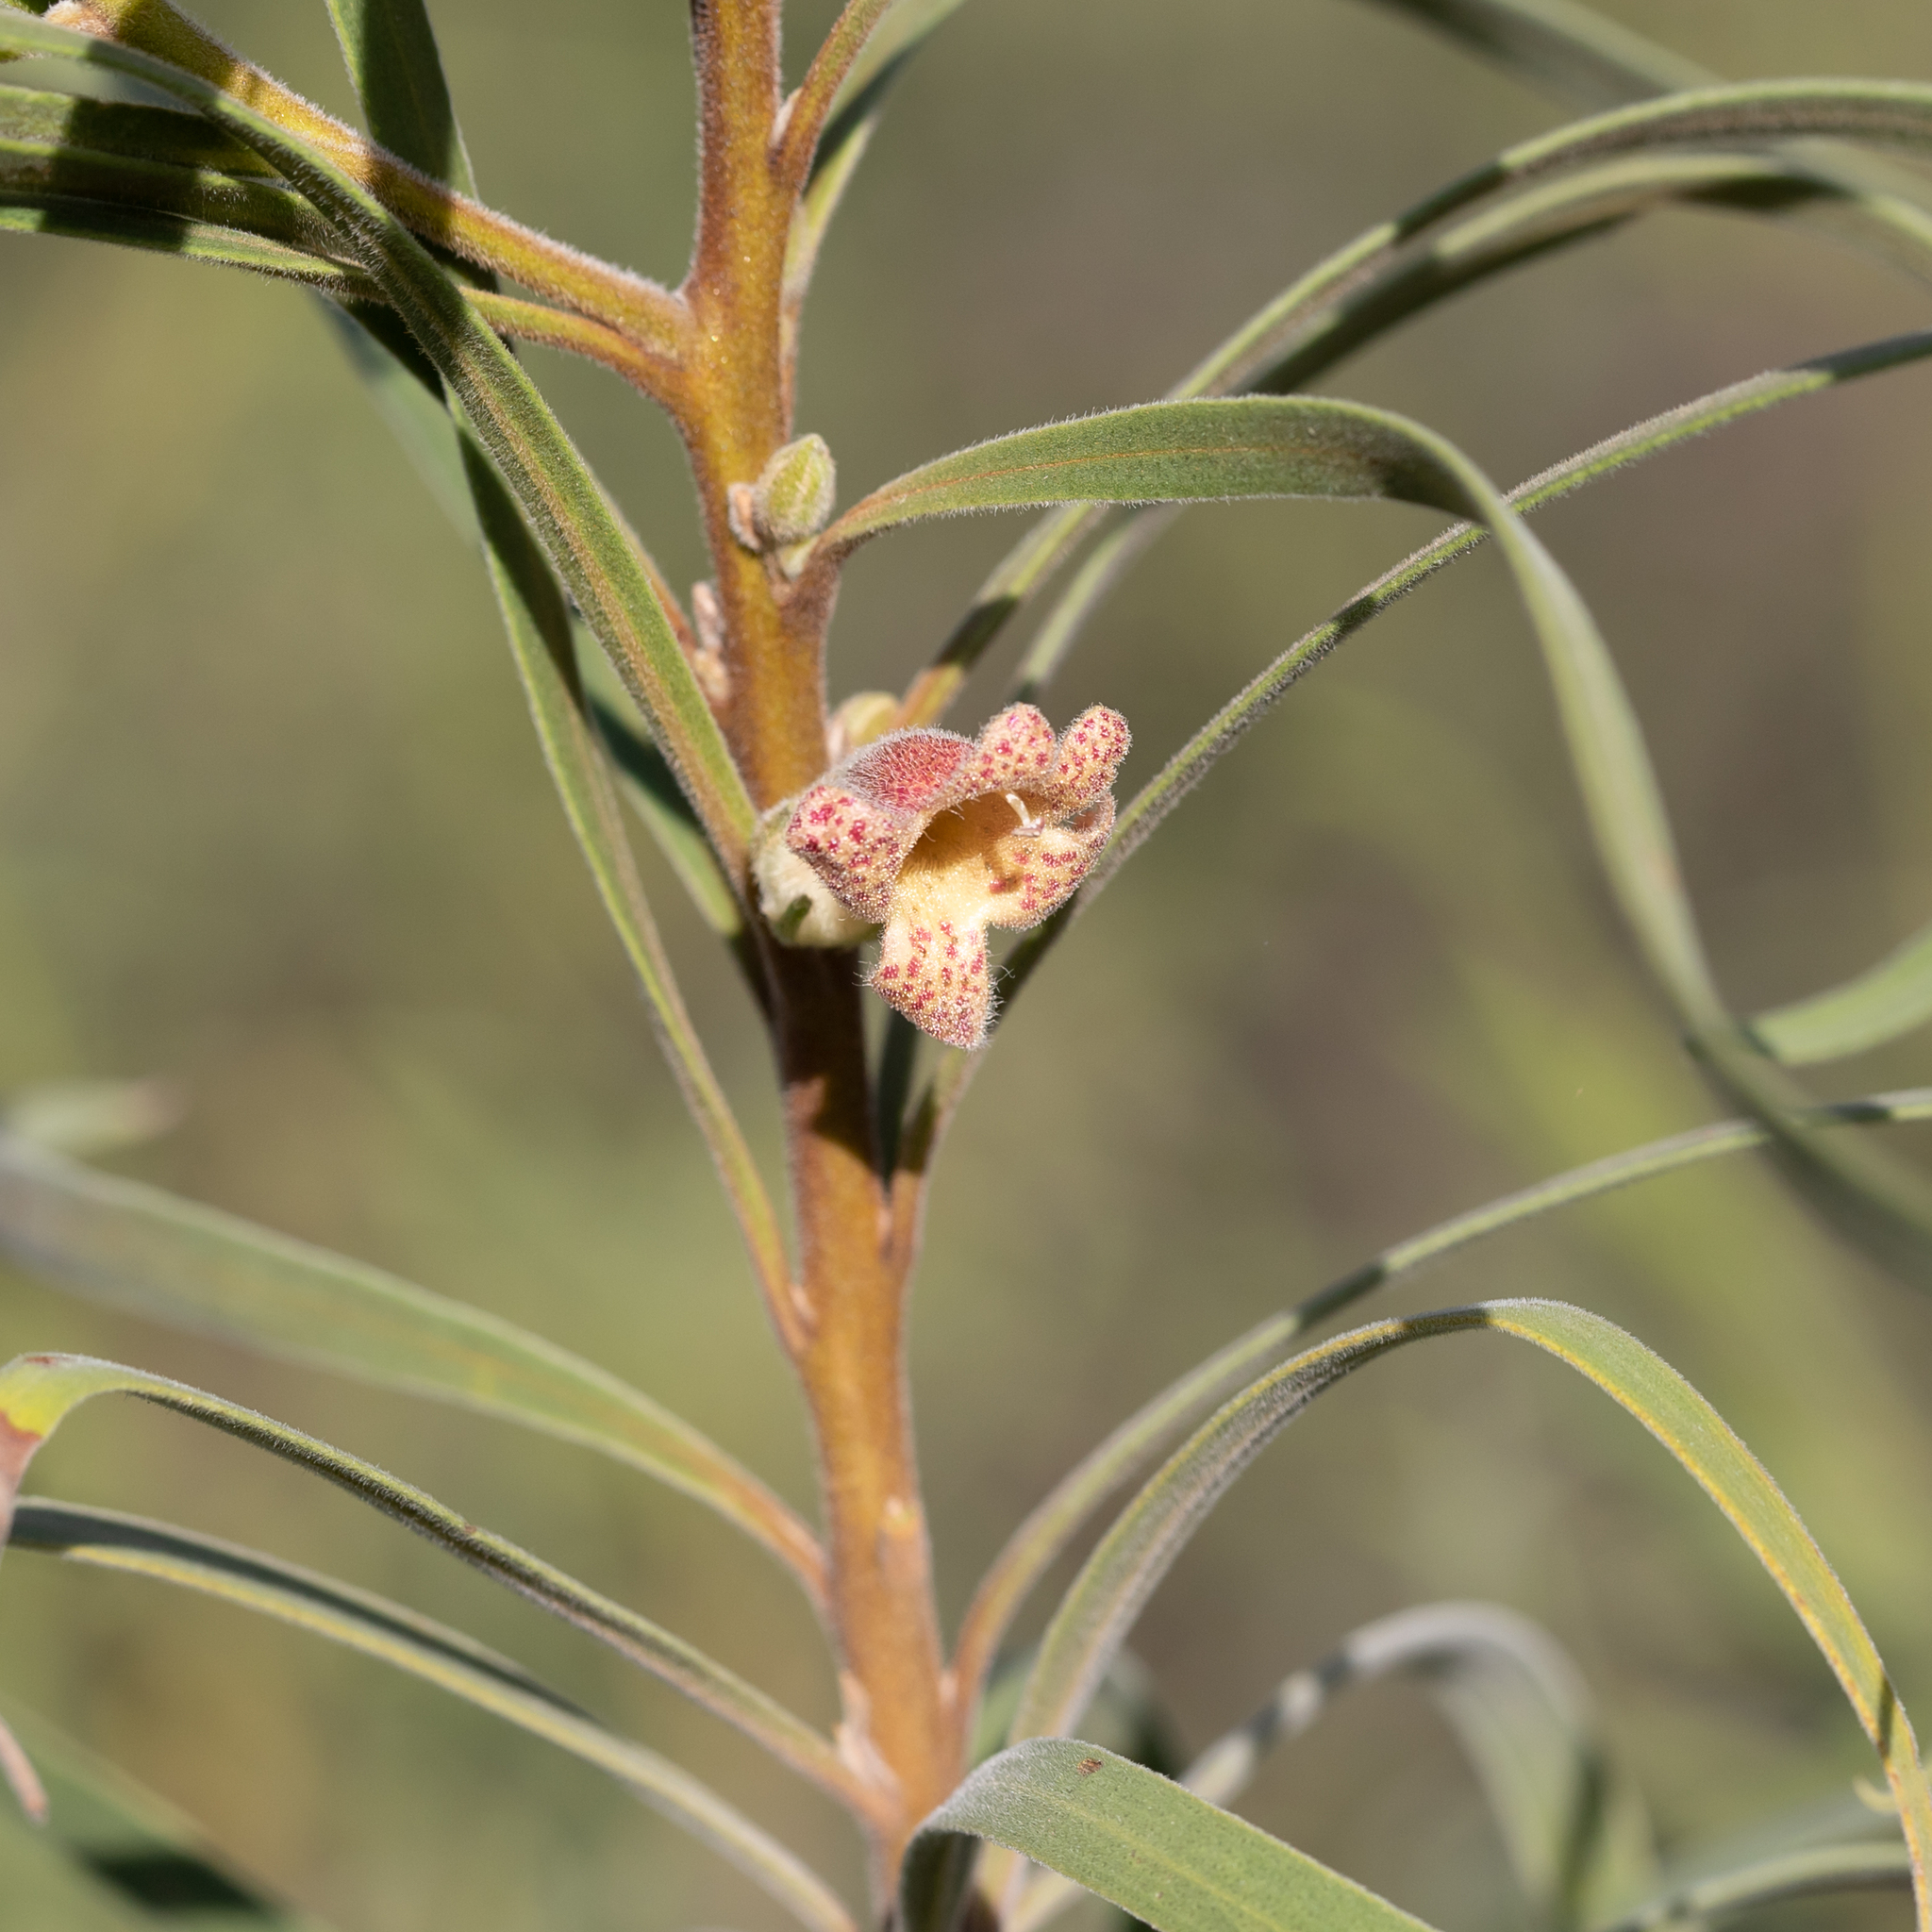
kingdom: Plantae
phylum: Tracheophyta
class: Magnoliopsida
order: Lamiales
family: Scrophulariaceae
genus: Eremophila
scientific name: Eremophila longifolia
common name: Longleaf emubush
